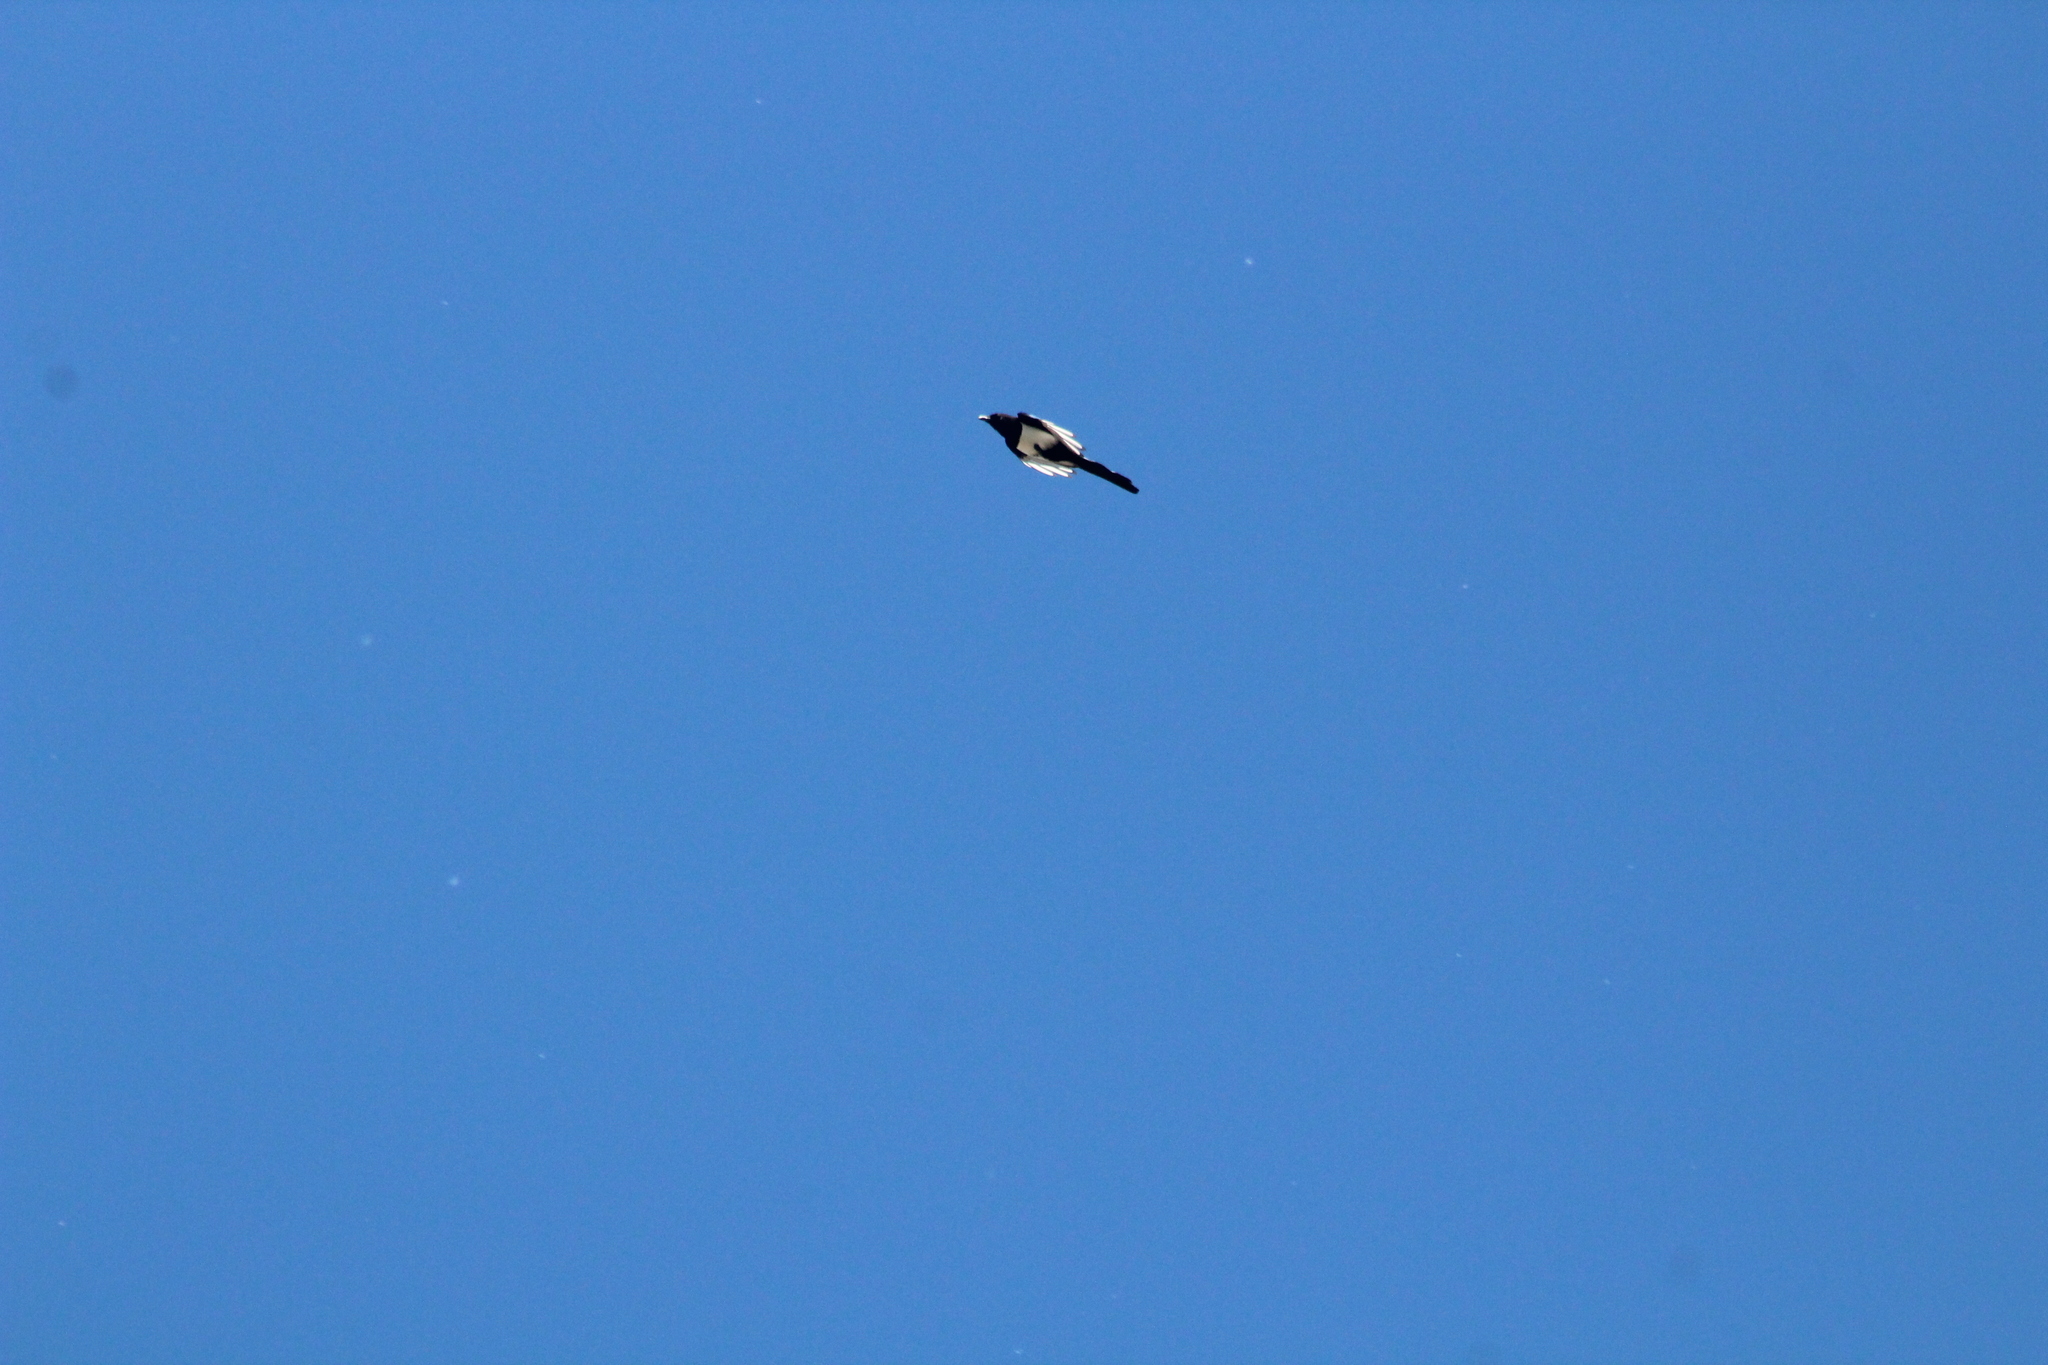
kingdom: Animalia
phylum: Chordata
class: Aves
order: Passeriformes
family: Corvidae
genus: Pica
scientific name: Pica pica
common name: Eurasian magpie
